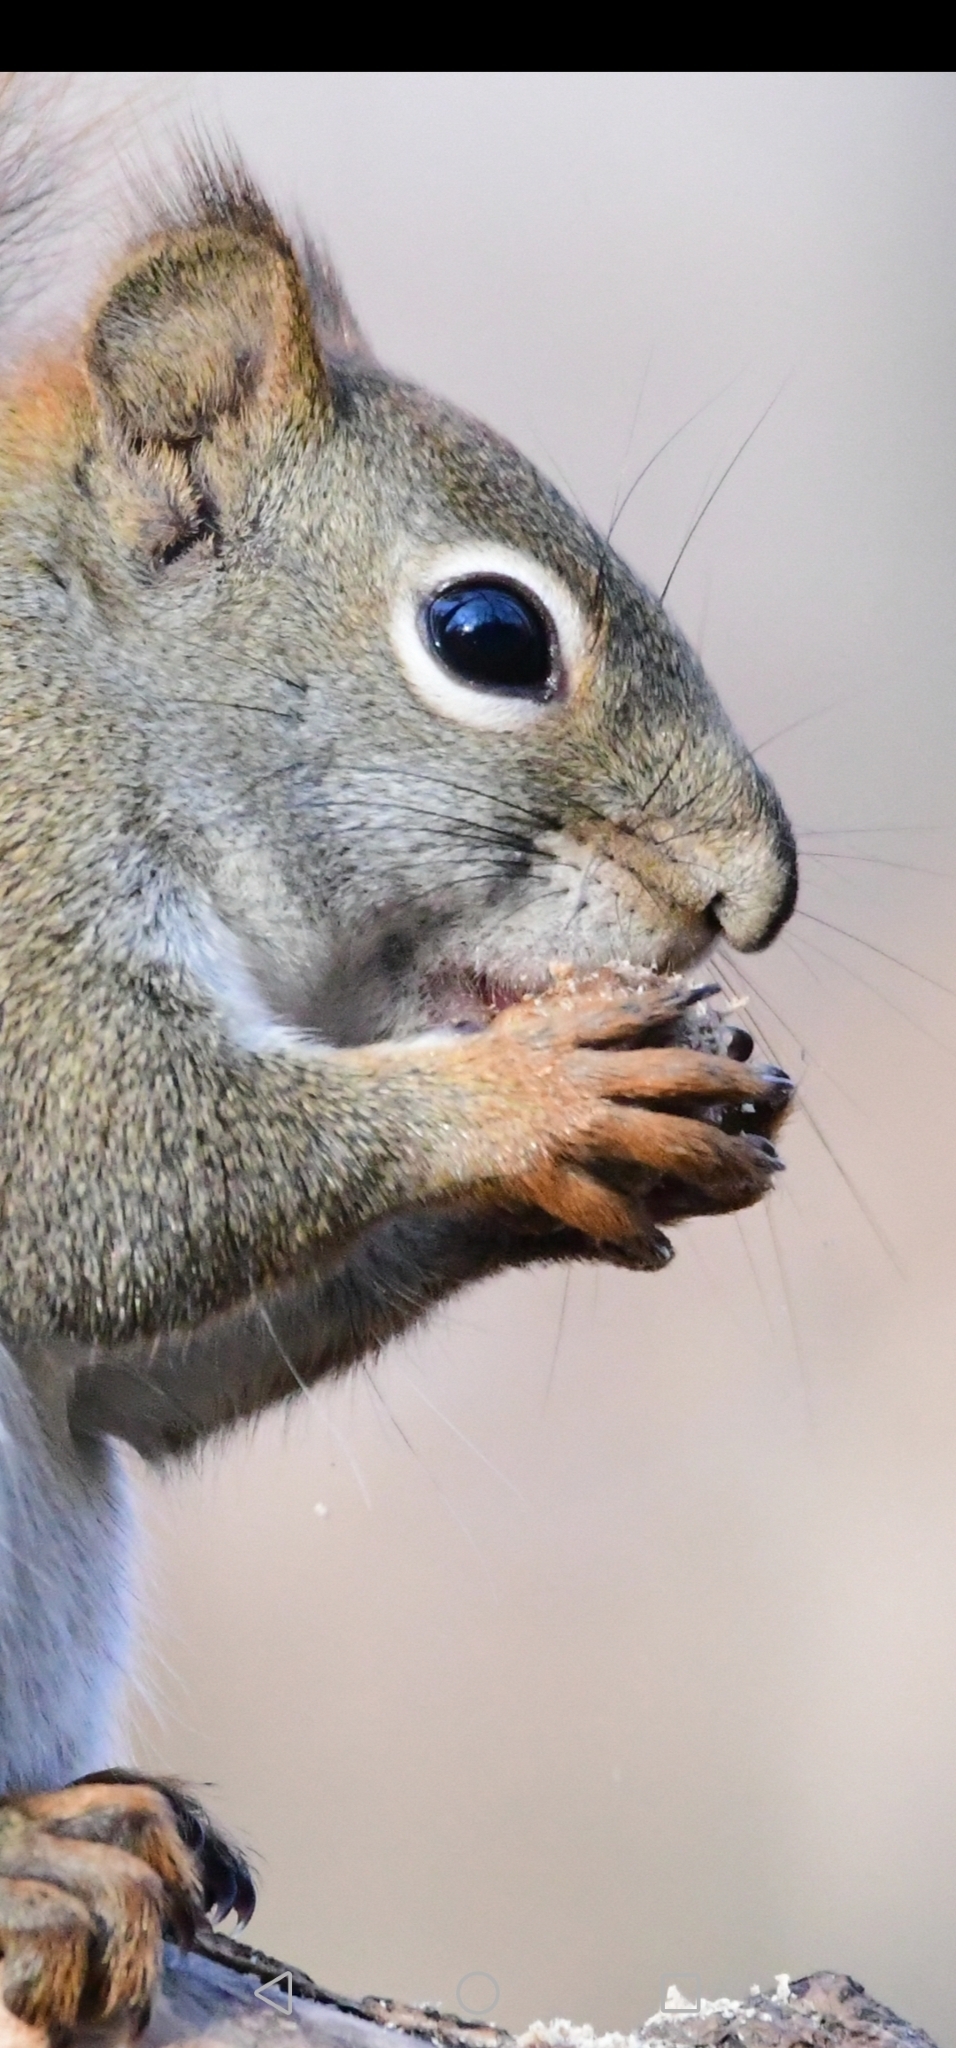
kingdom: Animalia
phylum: Chordata
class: Mammalia
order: Rodentia
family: Sciuridae
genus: Tamiasciurus
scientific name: Tamiasciurus hudsonicus
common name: Red squirrel
